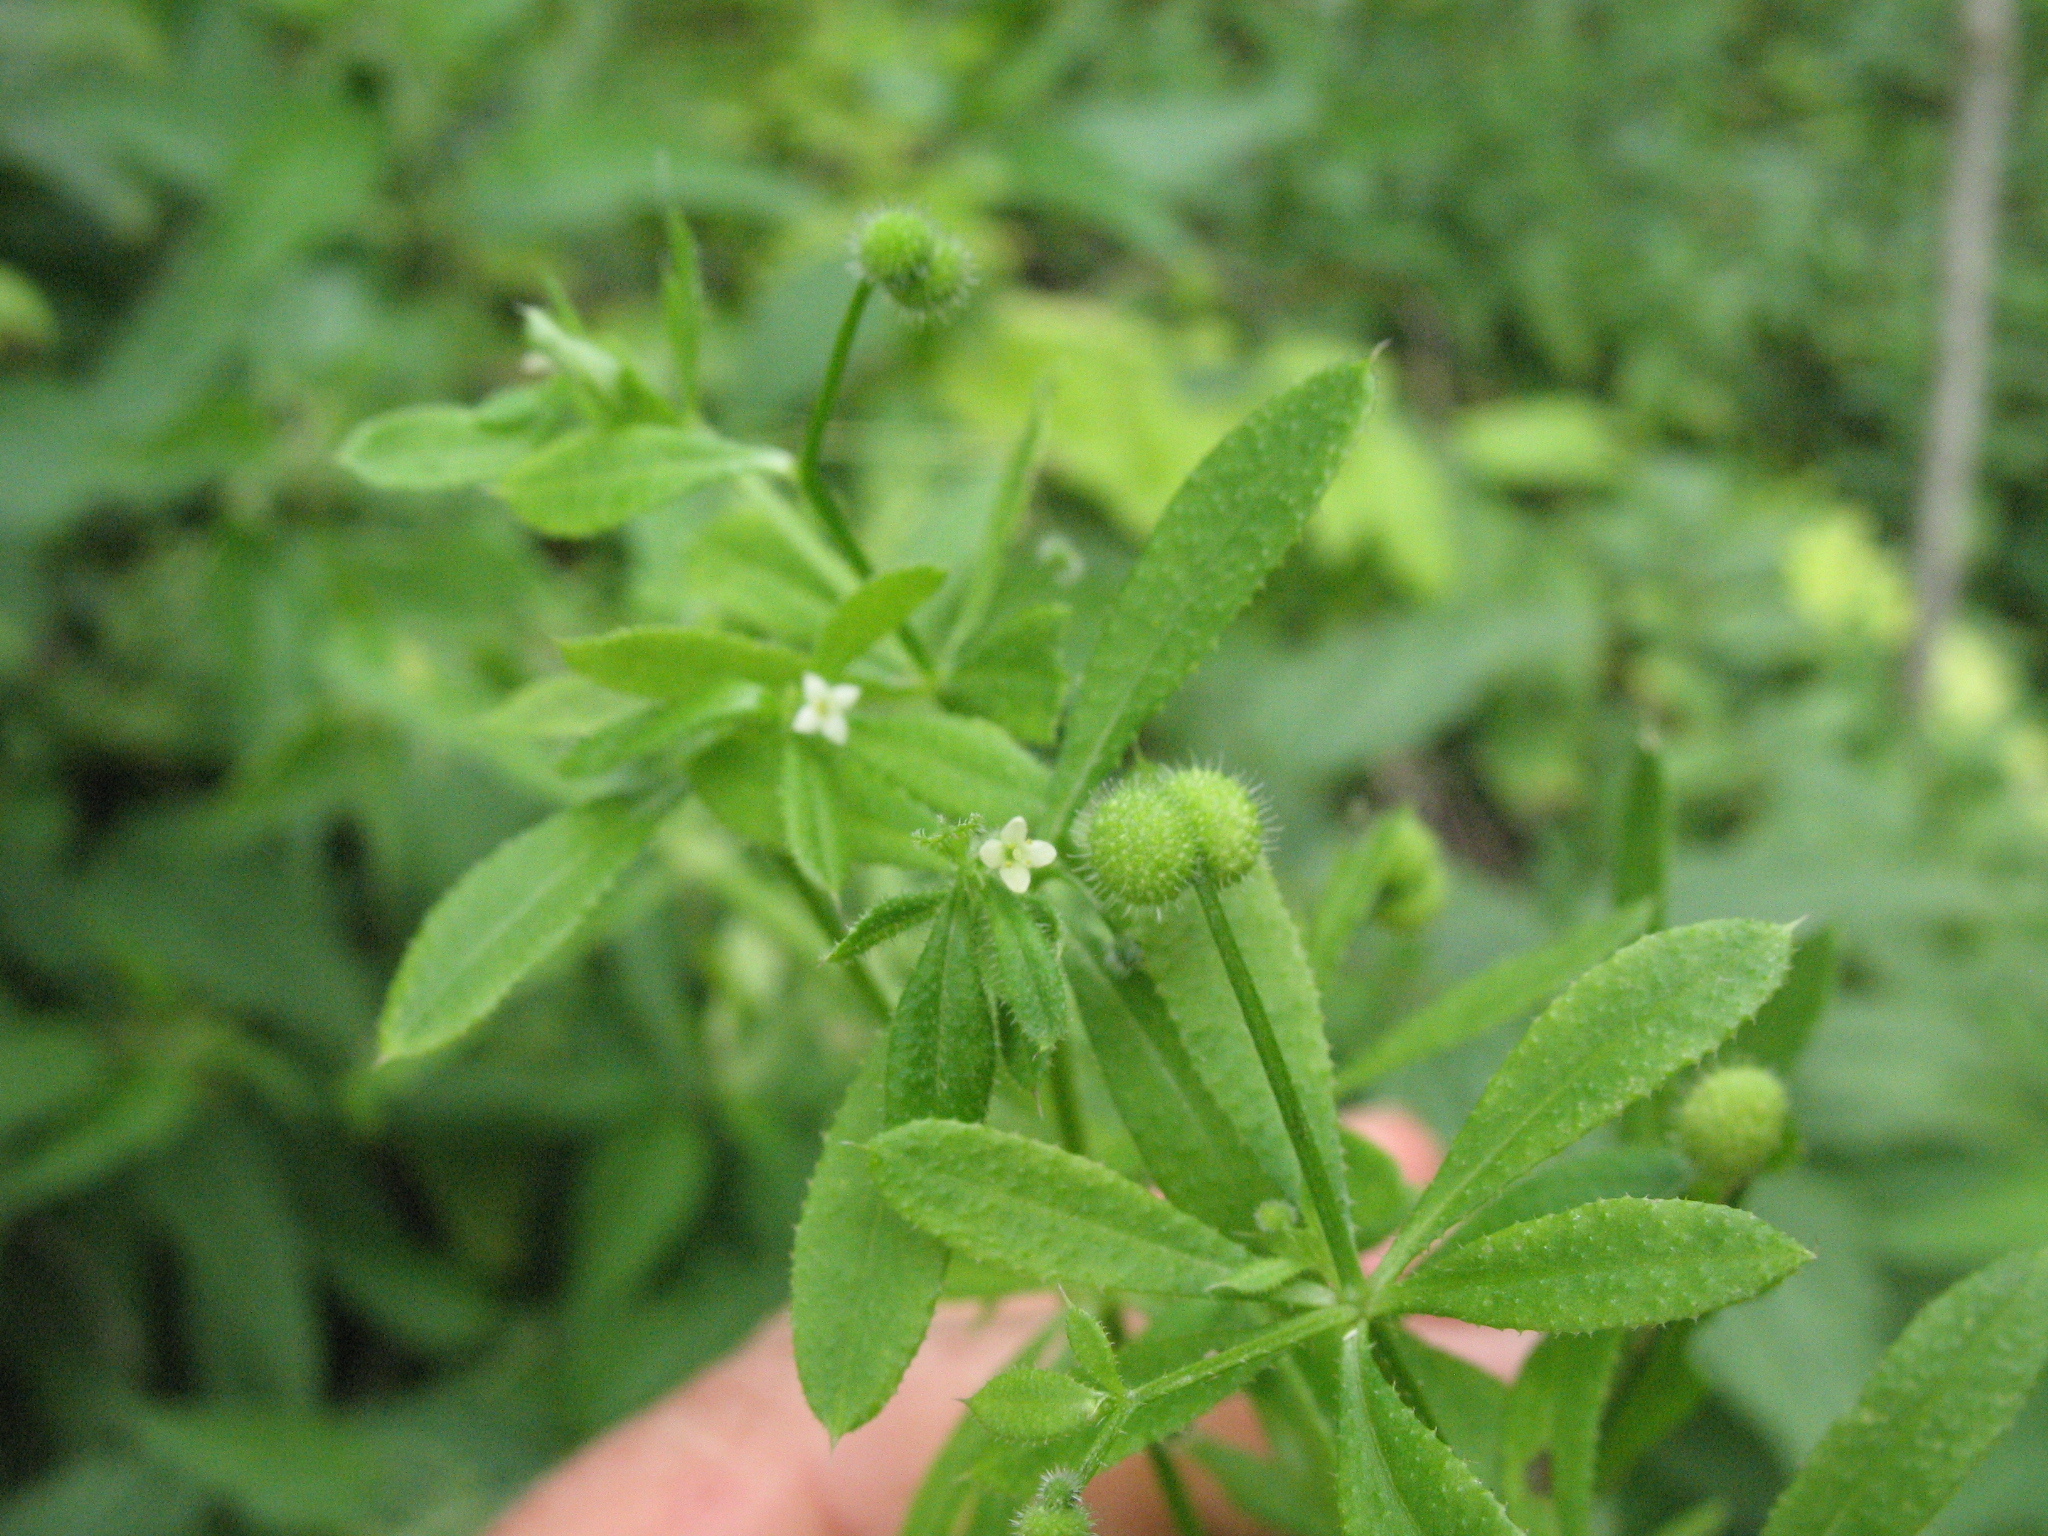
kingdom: Plantae
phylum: Tracheophyta
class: Magnoliopsida
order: Gentianales
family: Rubiaceae
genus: Galium
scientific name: Galium aparine
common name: Cleavers
